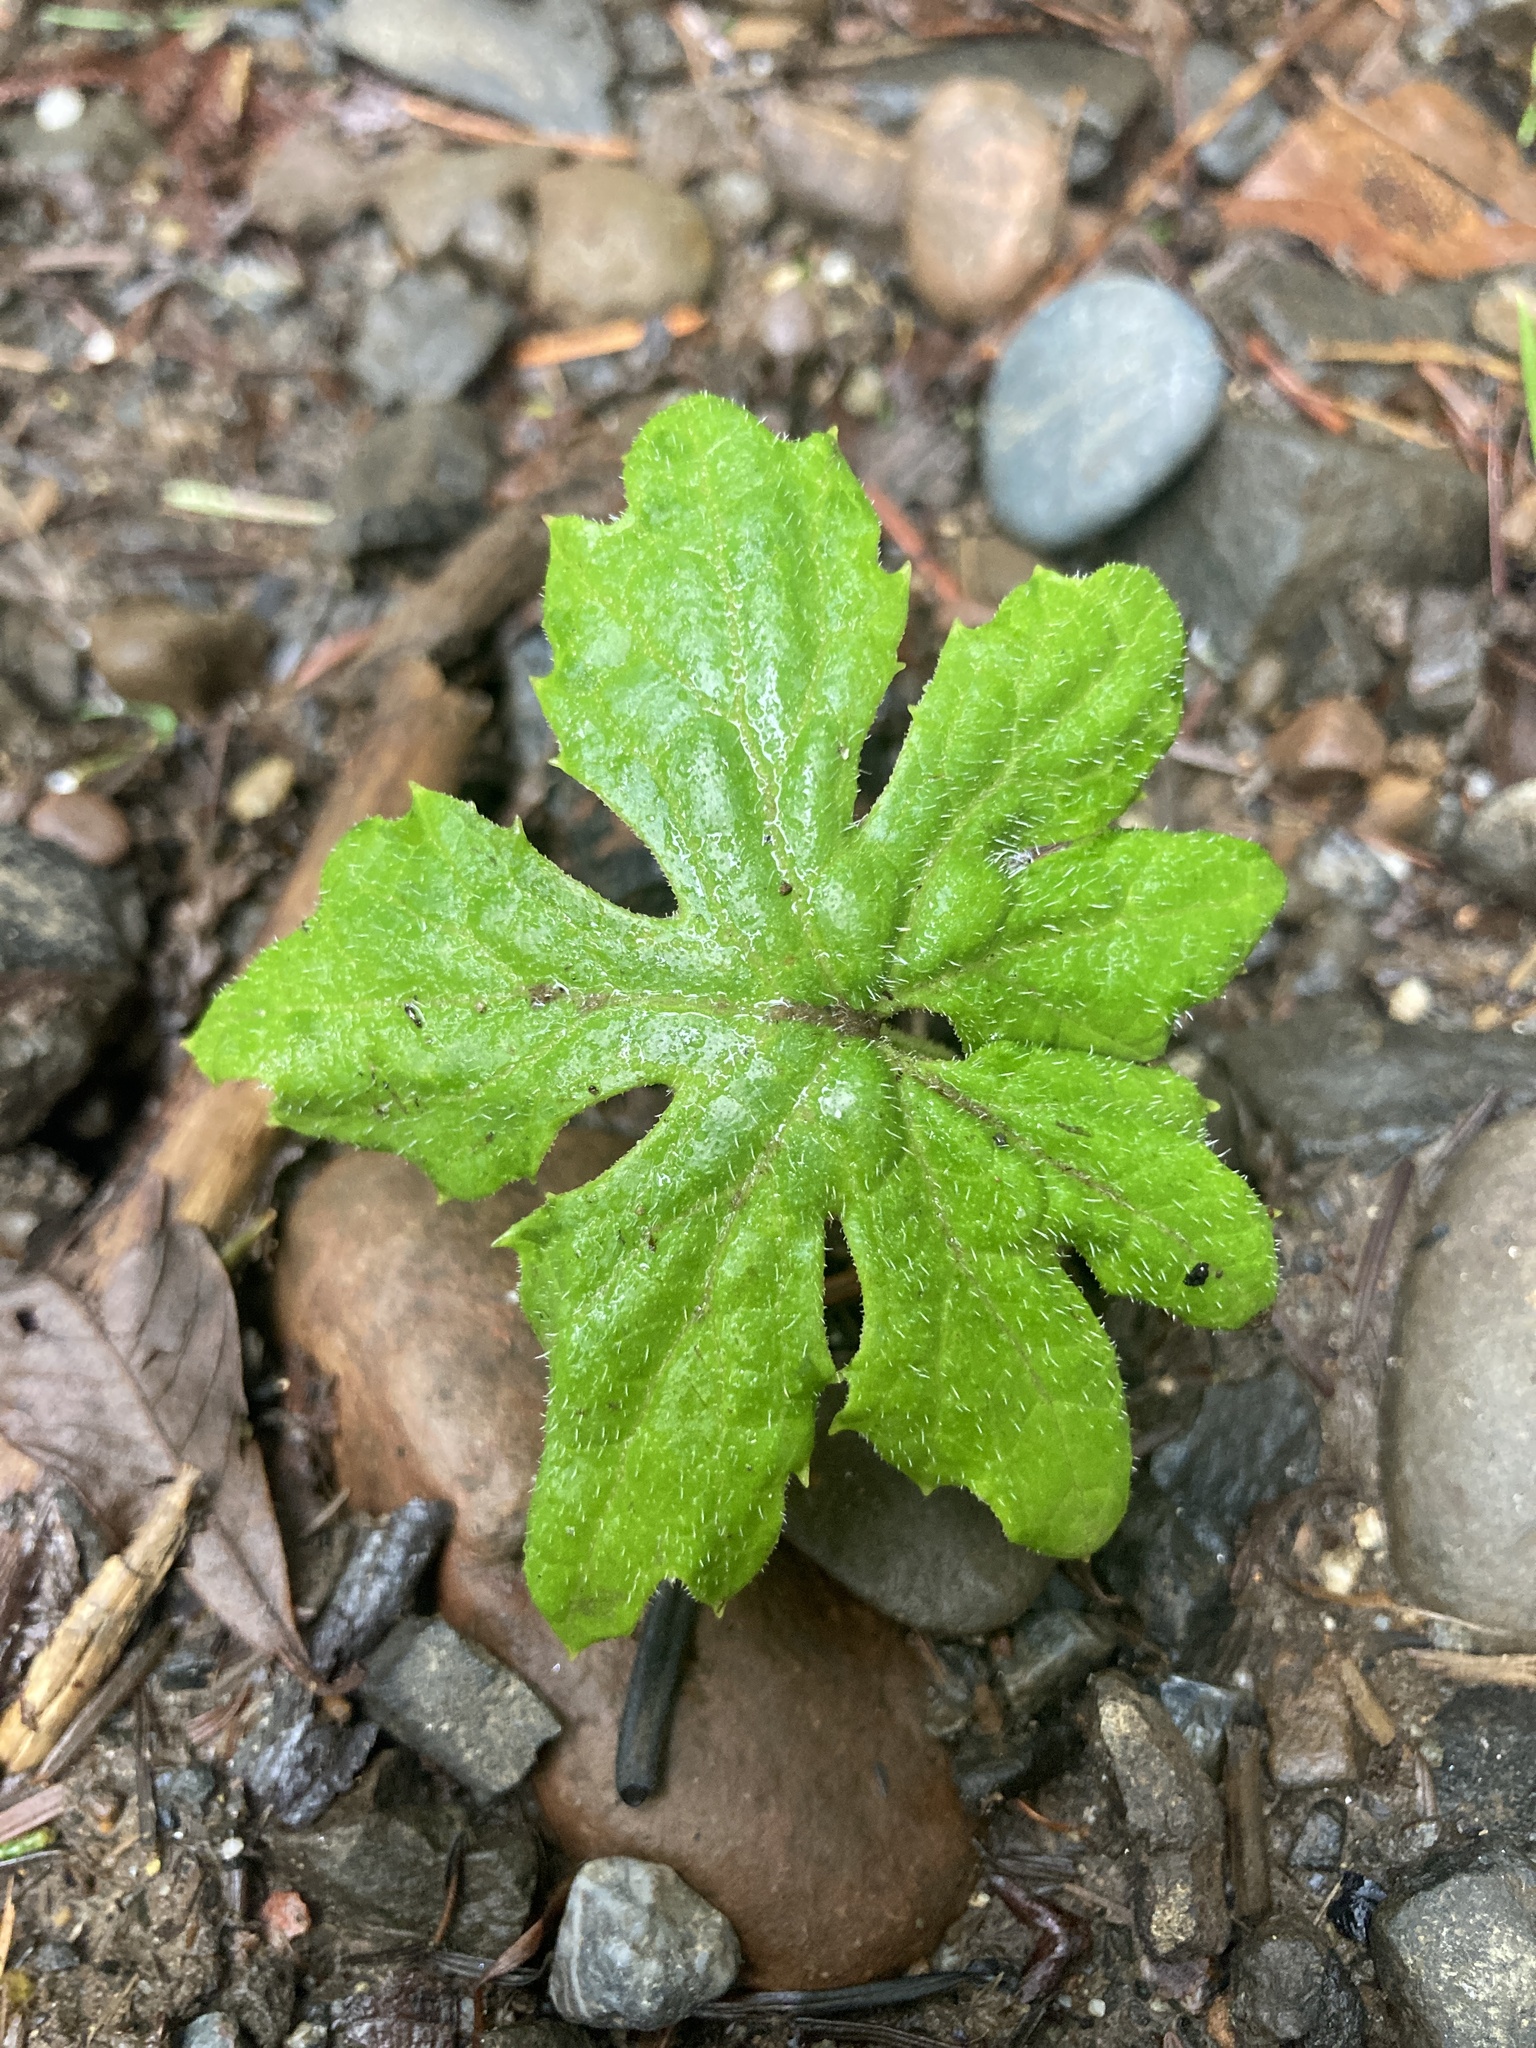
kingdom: Plantae
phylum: Tracheophyta
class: Magnoliopsida
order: Asterales
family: Asteraceae
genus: Petasites
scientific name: Petasites frigidus
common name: Arctic butterbur
